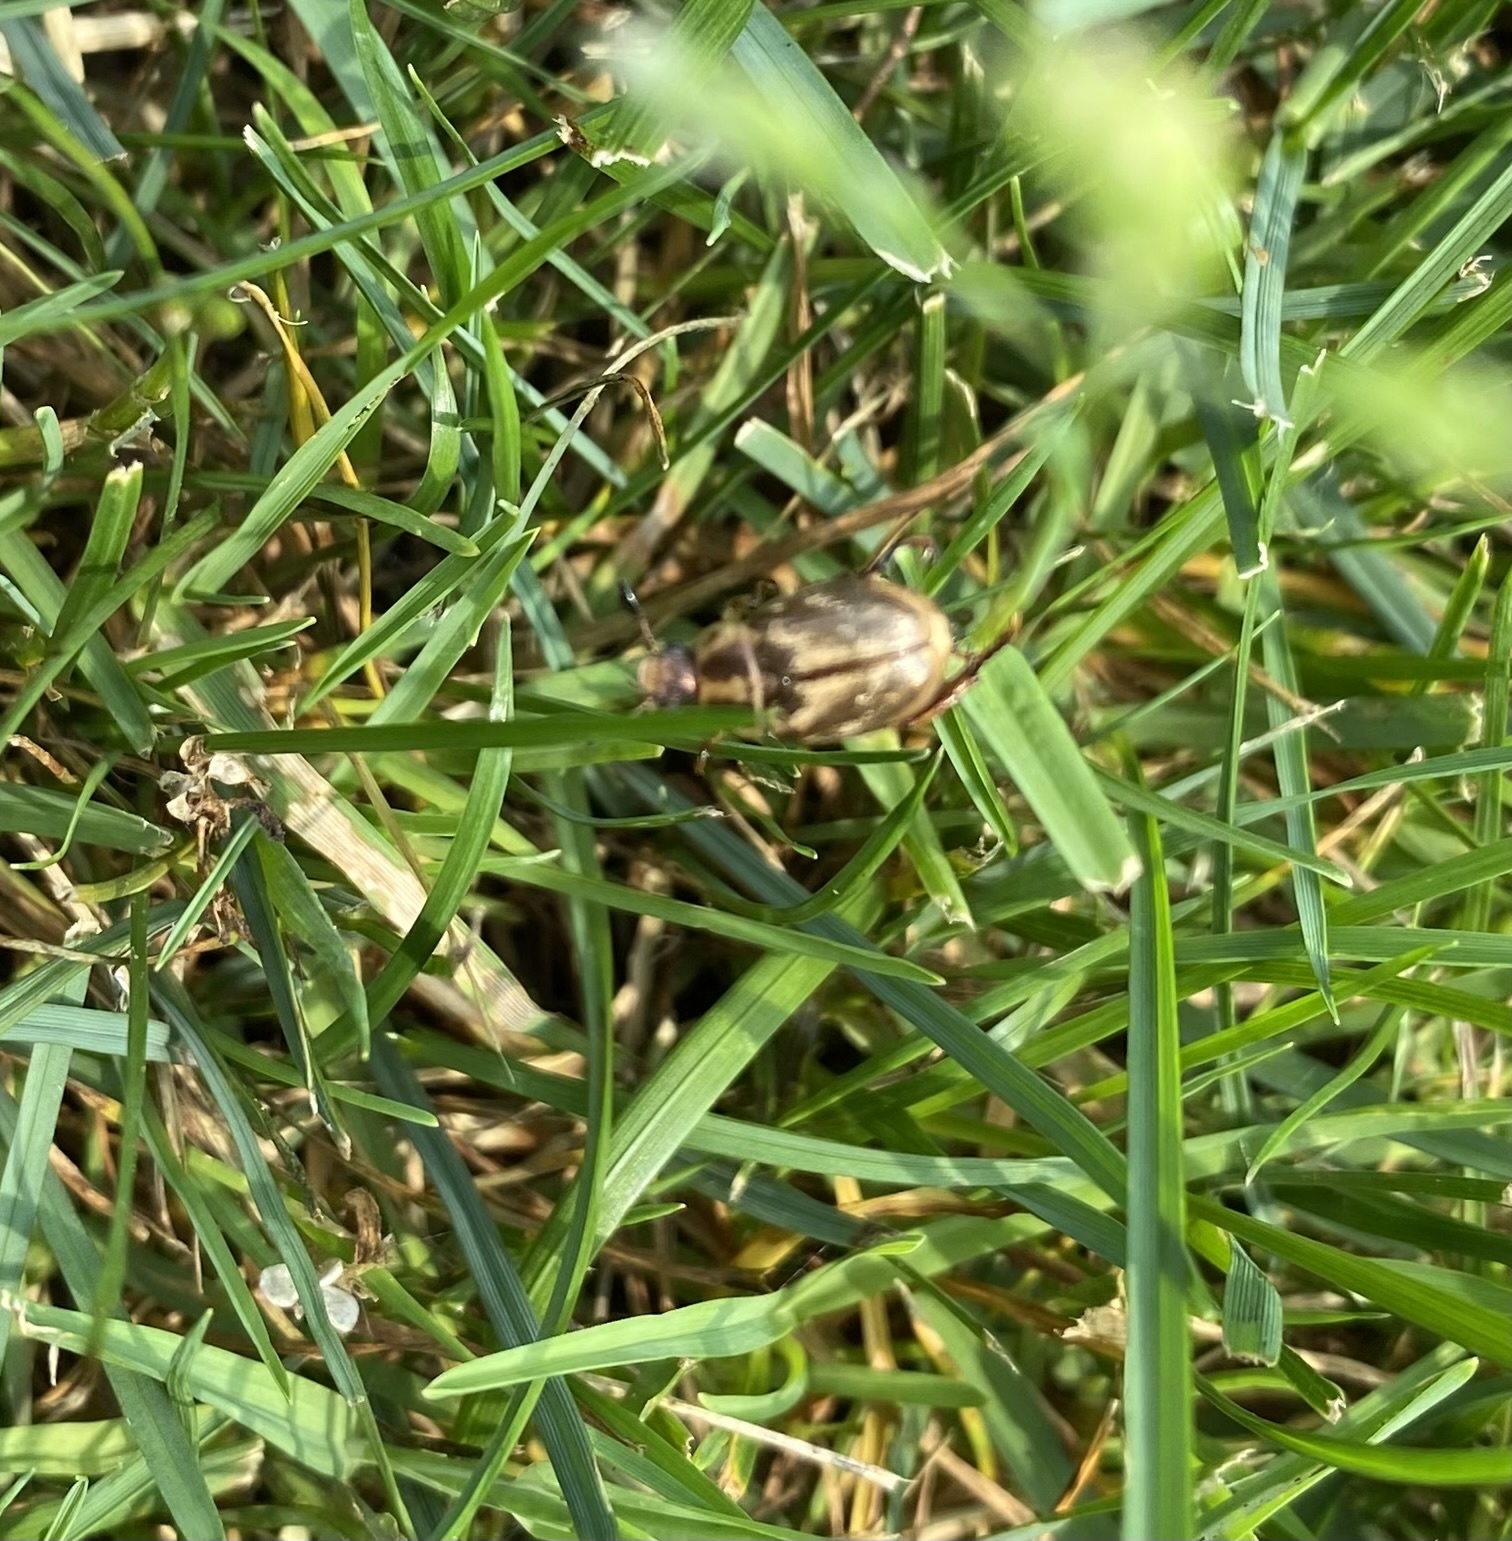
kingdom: Animalia
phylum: Arthropoda
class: Insecta
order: Coleoptera
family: Scarabaeidae
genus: Exomala
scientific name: Exomala orientalis
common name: Oriental beetle
